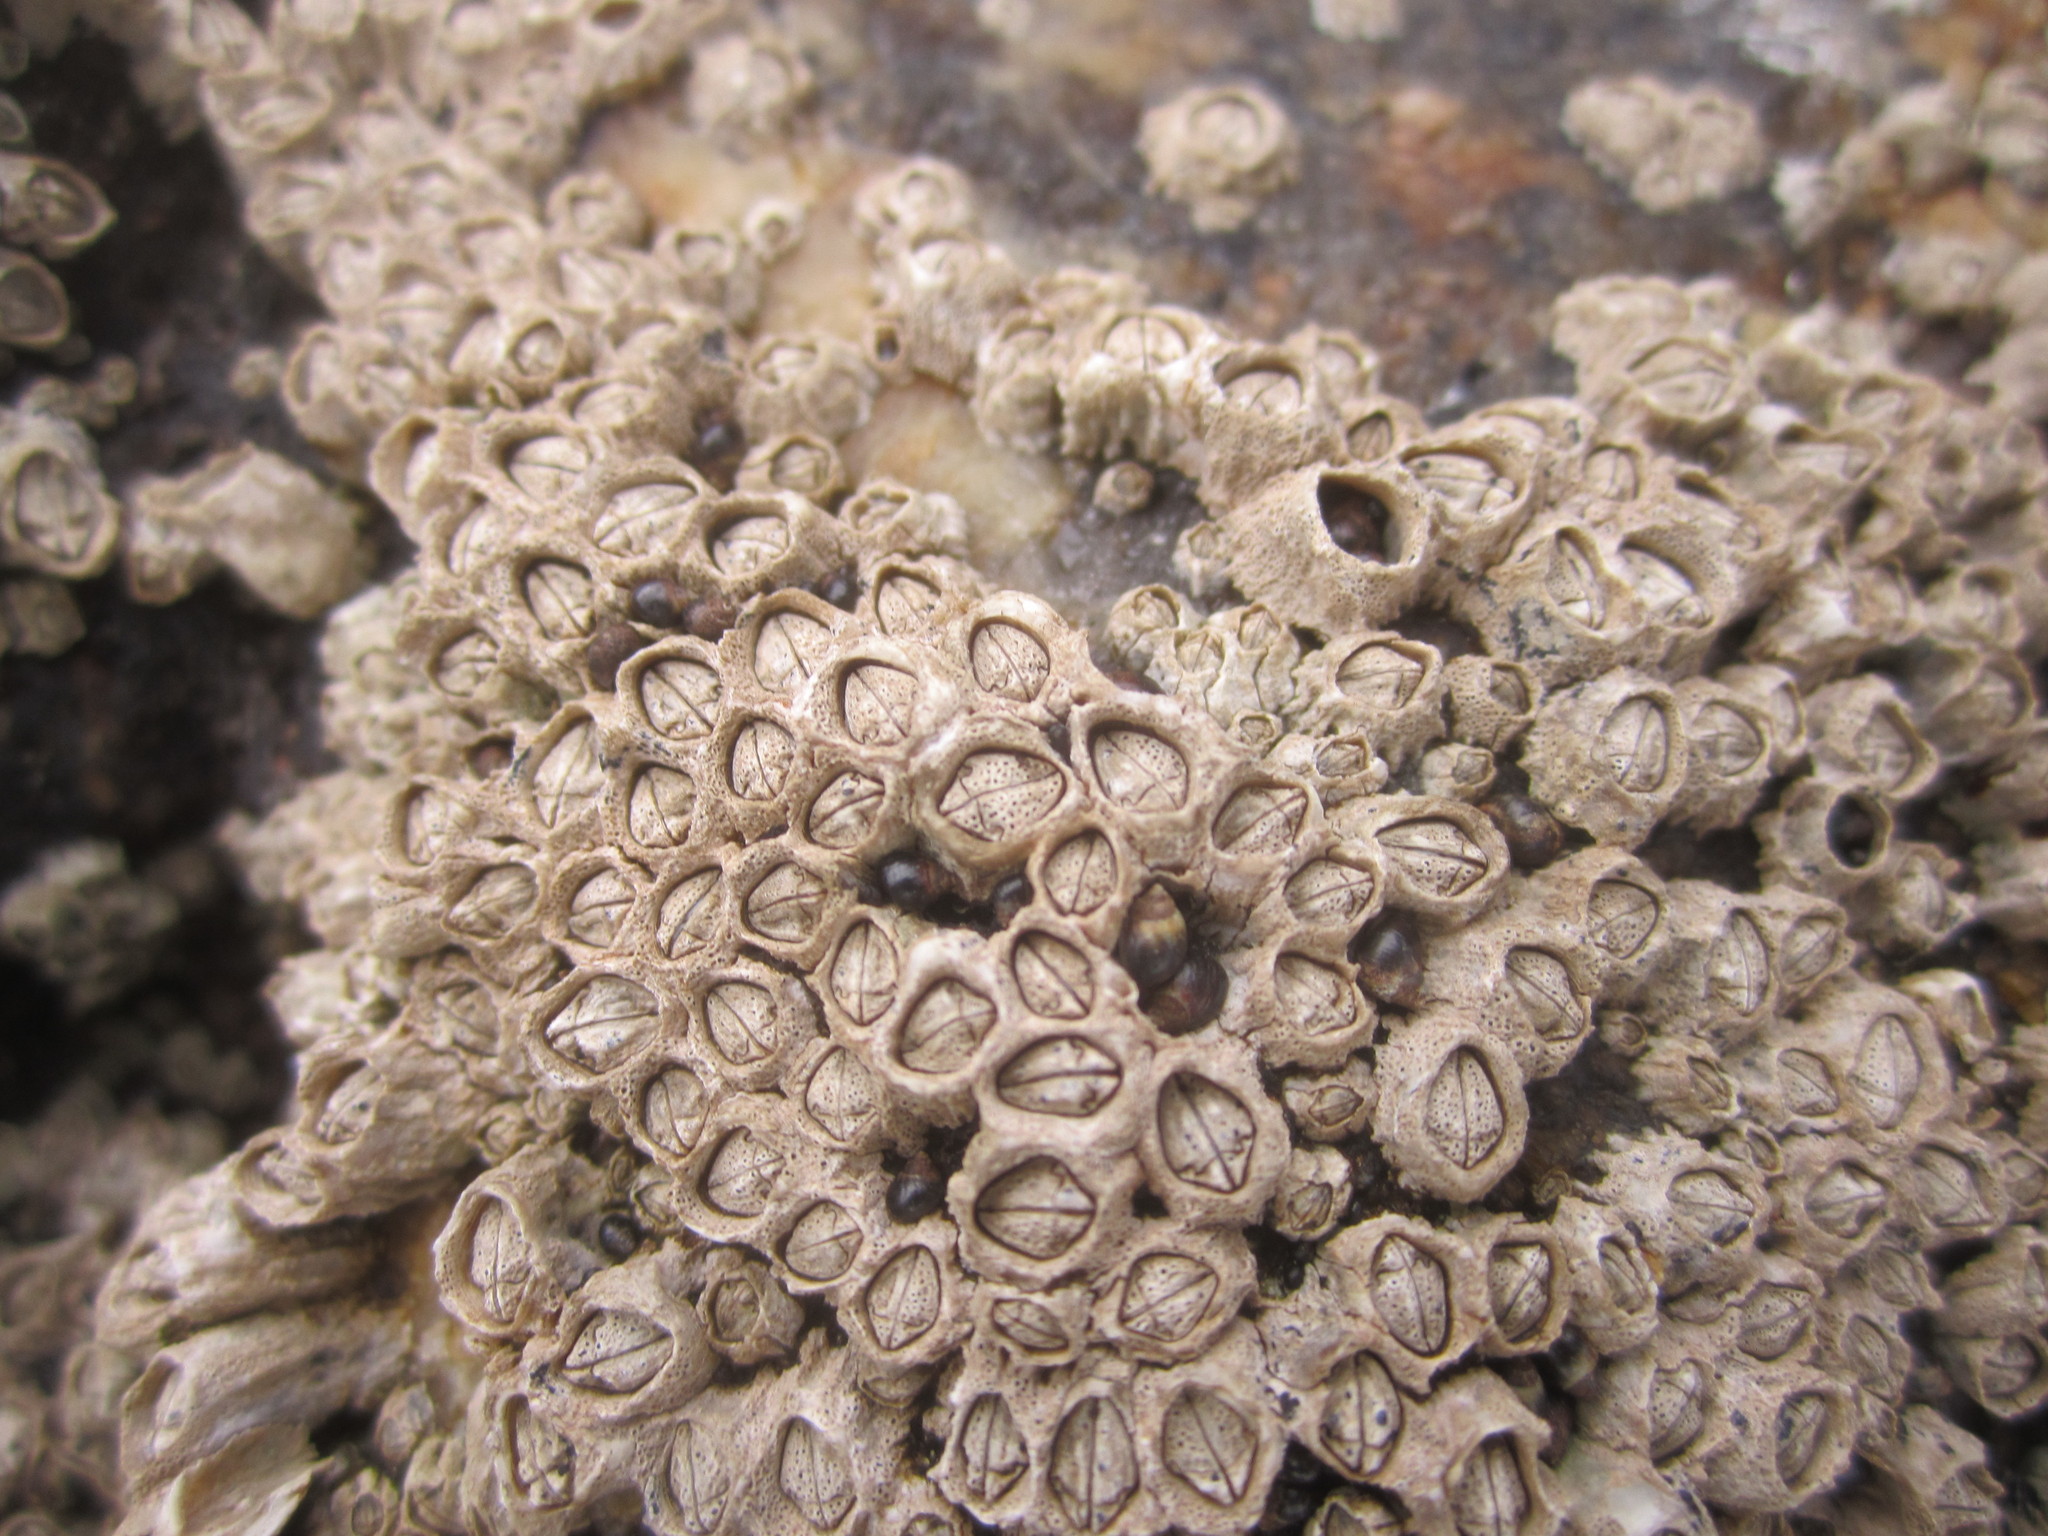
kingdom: Animalia
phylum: Mollusca
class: Gastropoda
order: Littorinimorpha
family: Littorinidae
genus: Melarhaphe
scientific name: Melarhaphe neritoides
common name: Small periwinkle
